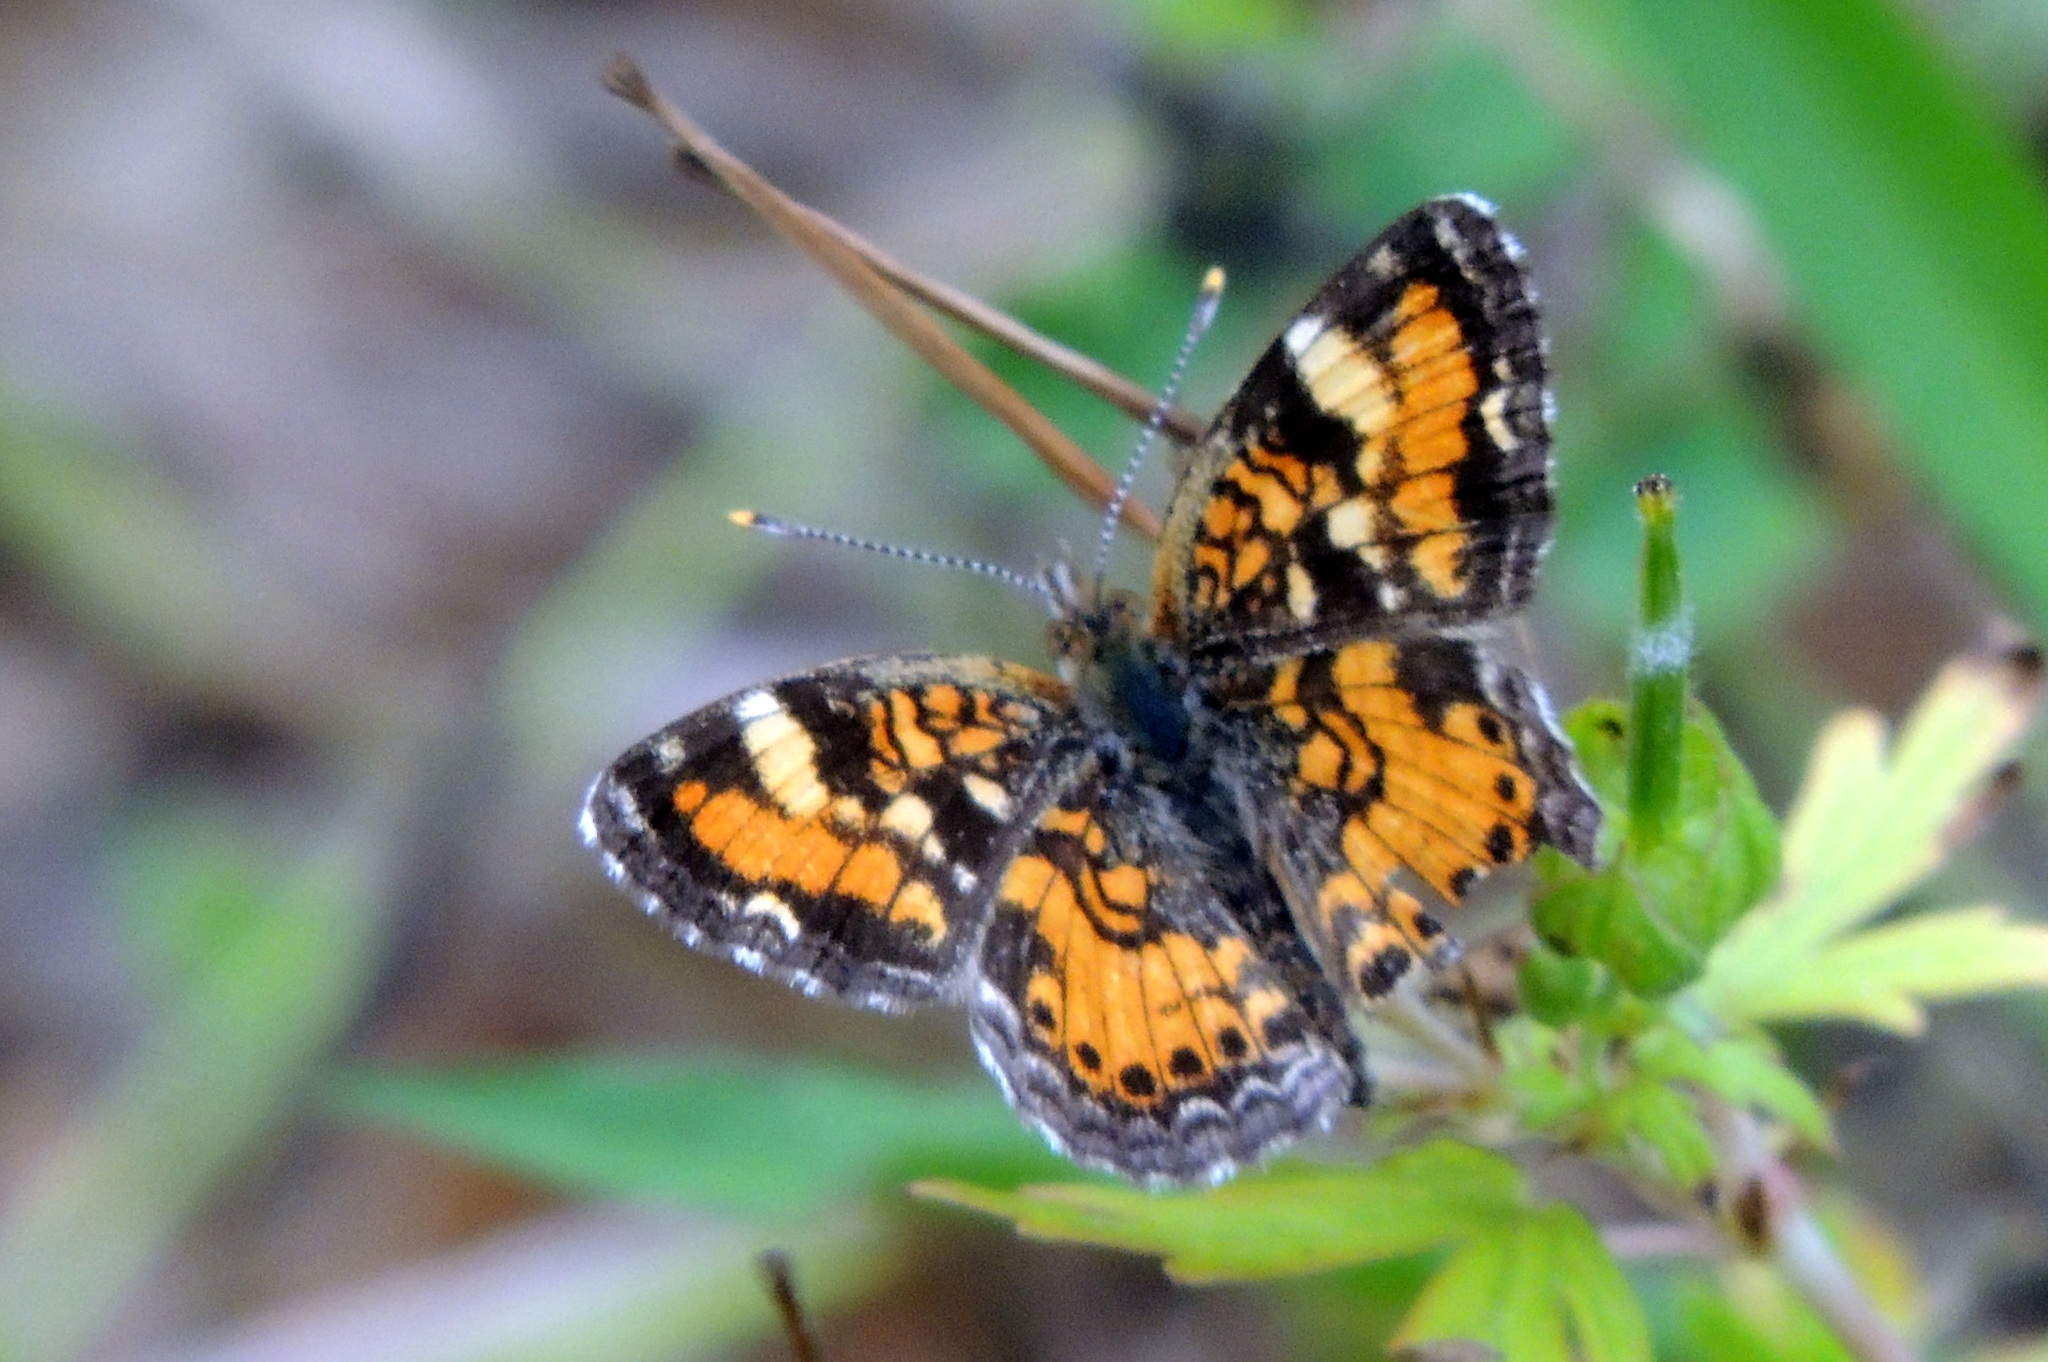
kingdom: Animalia
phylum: Arthropoda
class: Insecta
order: Lepidoptera
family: Nymphalidae
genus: Phyciodes
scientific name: Phyciodes phaon
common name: Phaon crescent
